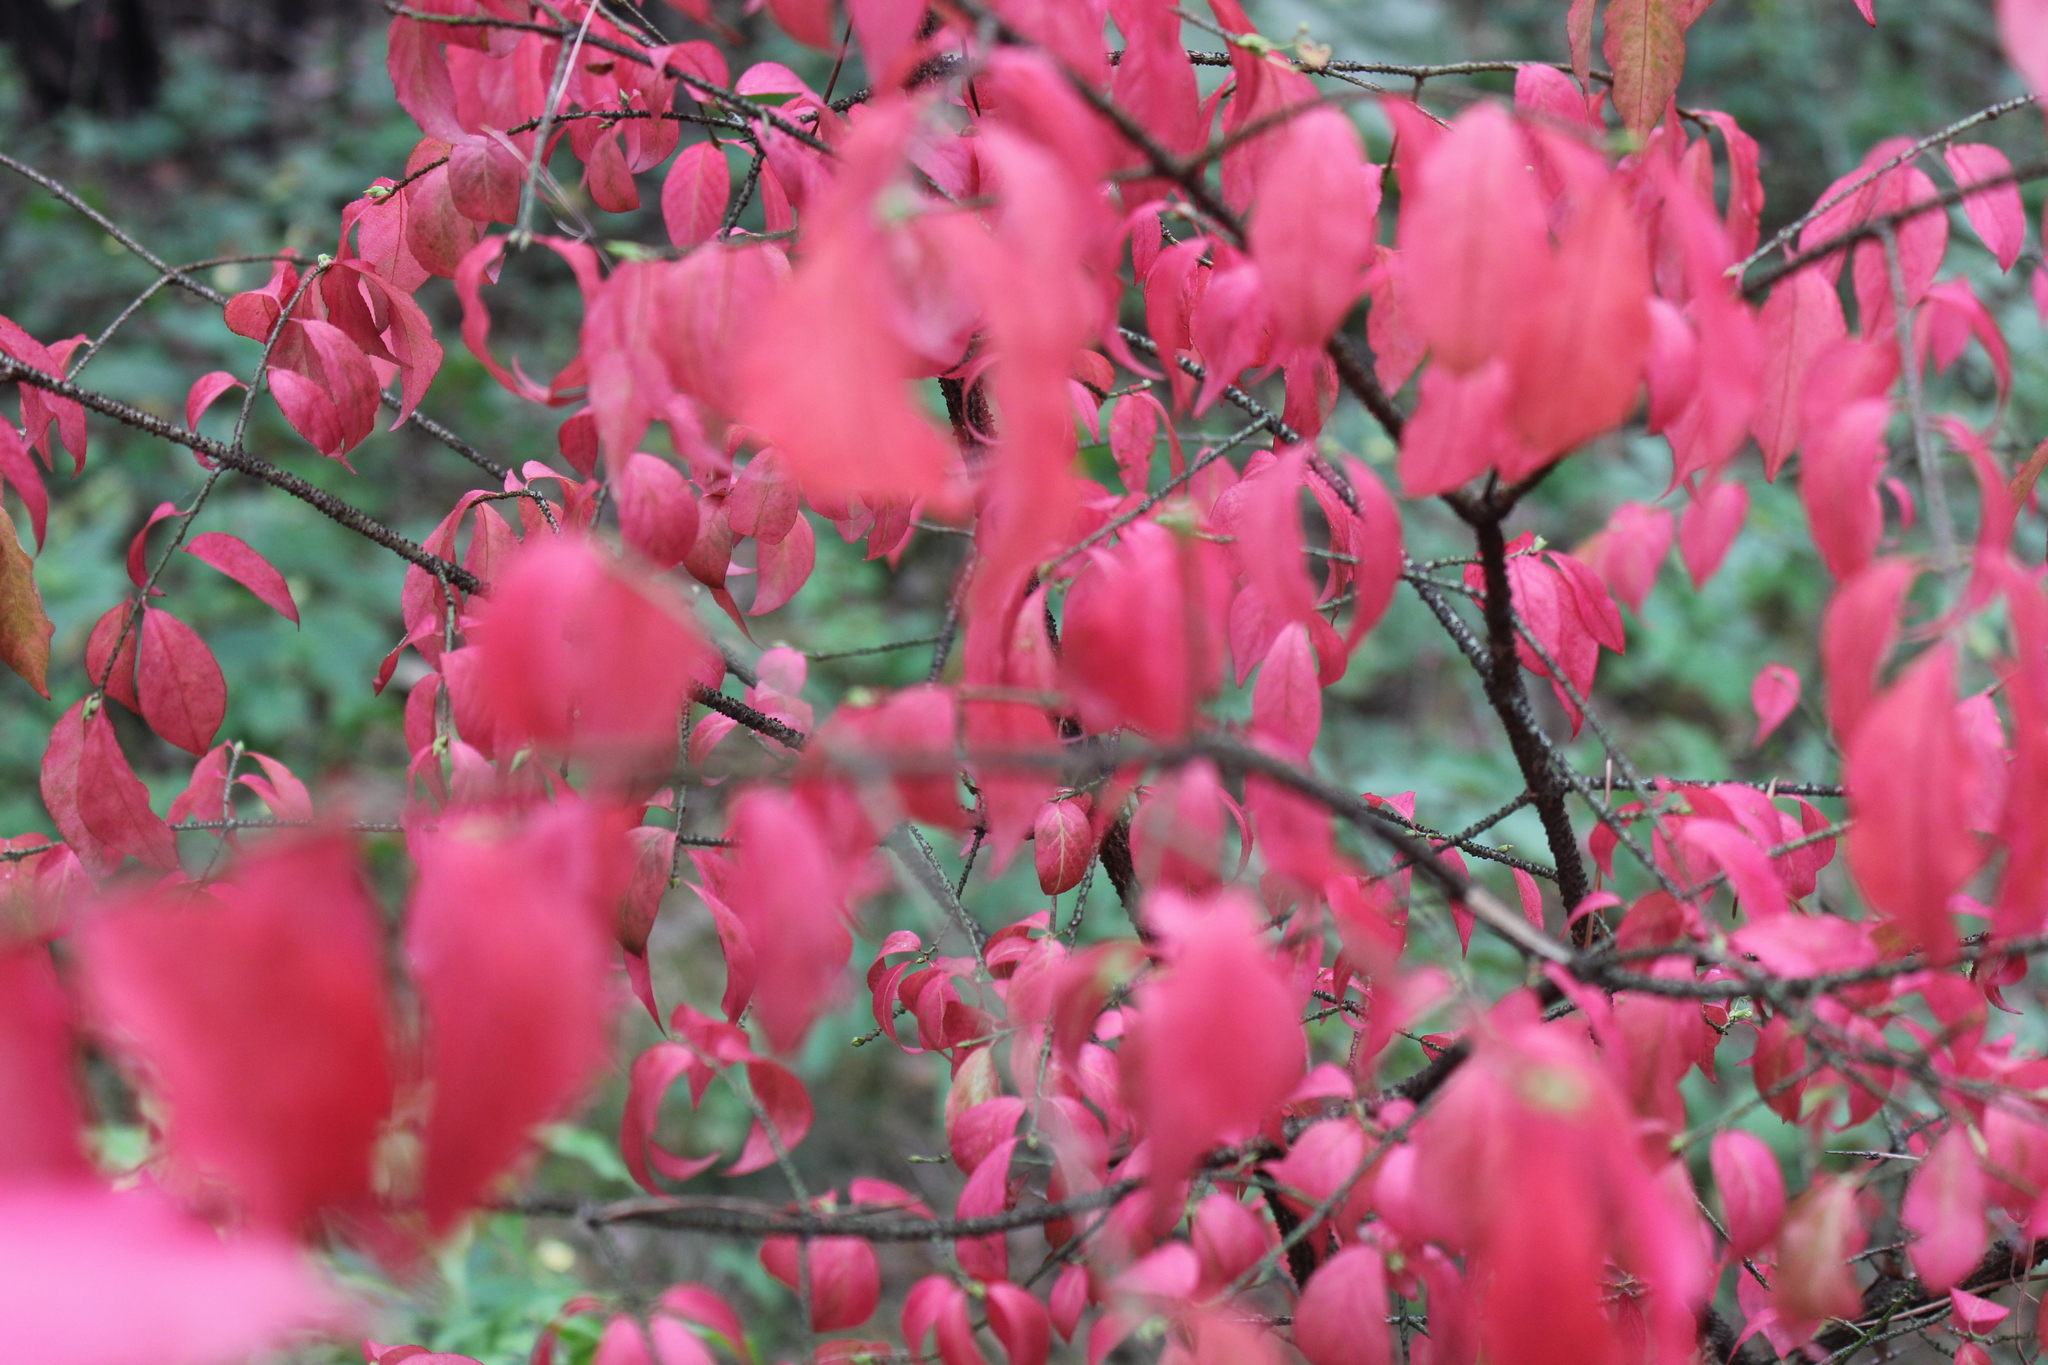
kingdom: Plantae
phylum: Tracheophyta
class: Magnoliopsida
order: Celastrales
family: Celastraceae
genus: Euonymus
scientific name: Euonymus verrucosus
